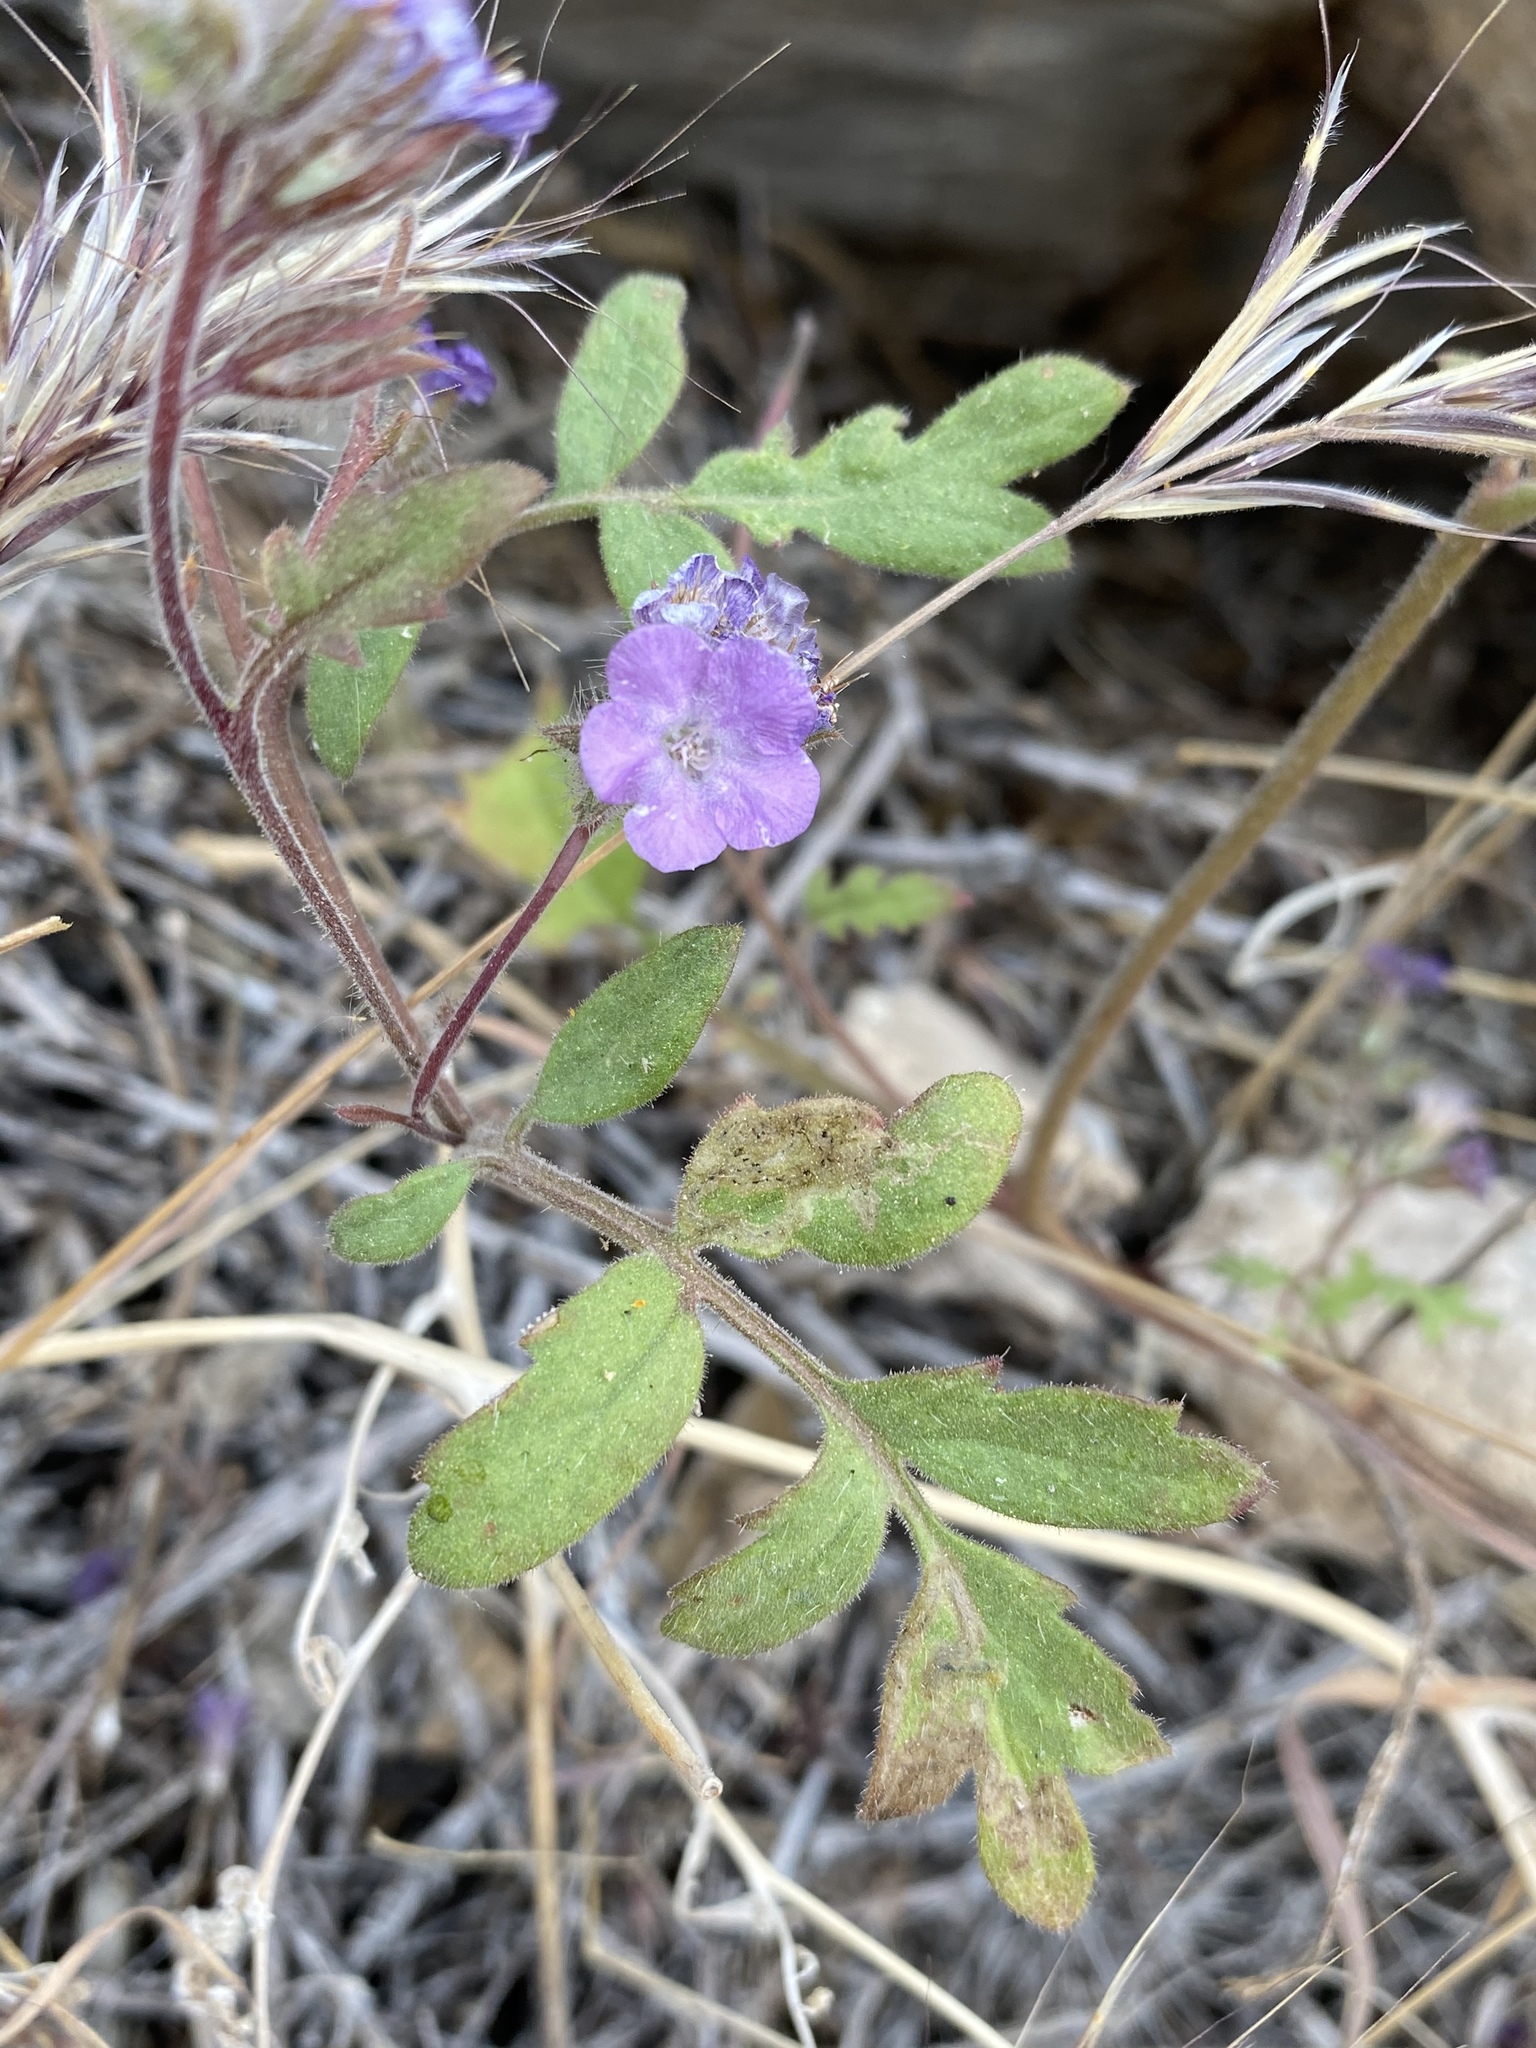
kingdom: Plantae
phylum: Tracheophyta
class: Magnoliopsida
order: Boraginales
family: Hydrophyllaceae
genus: Phacelia
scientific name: Phacelia vallis-mortae
